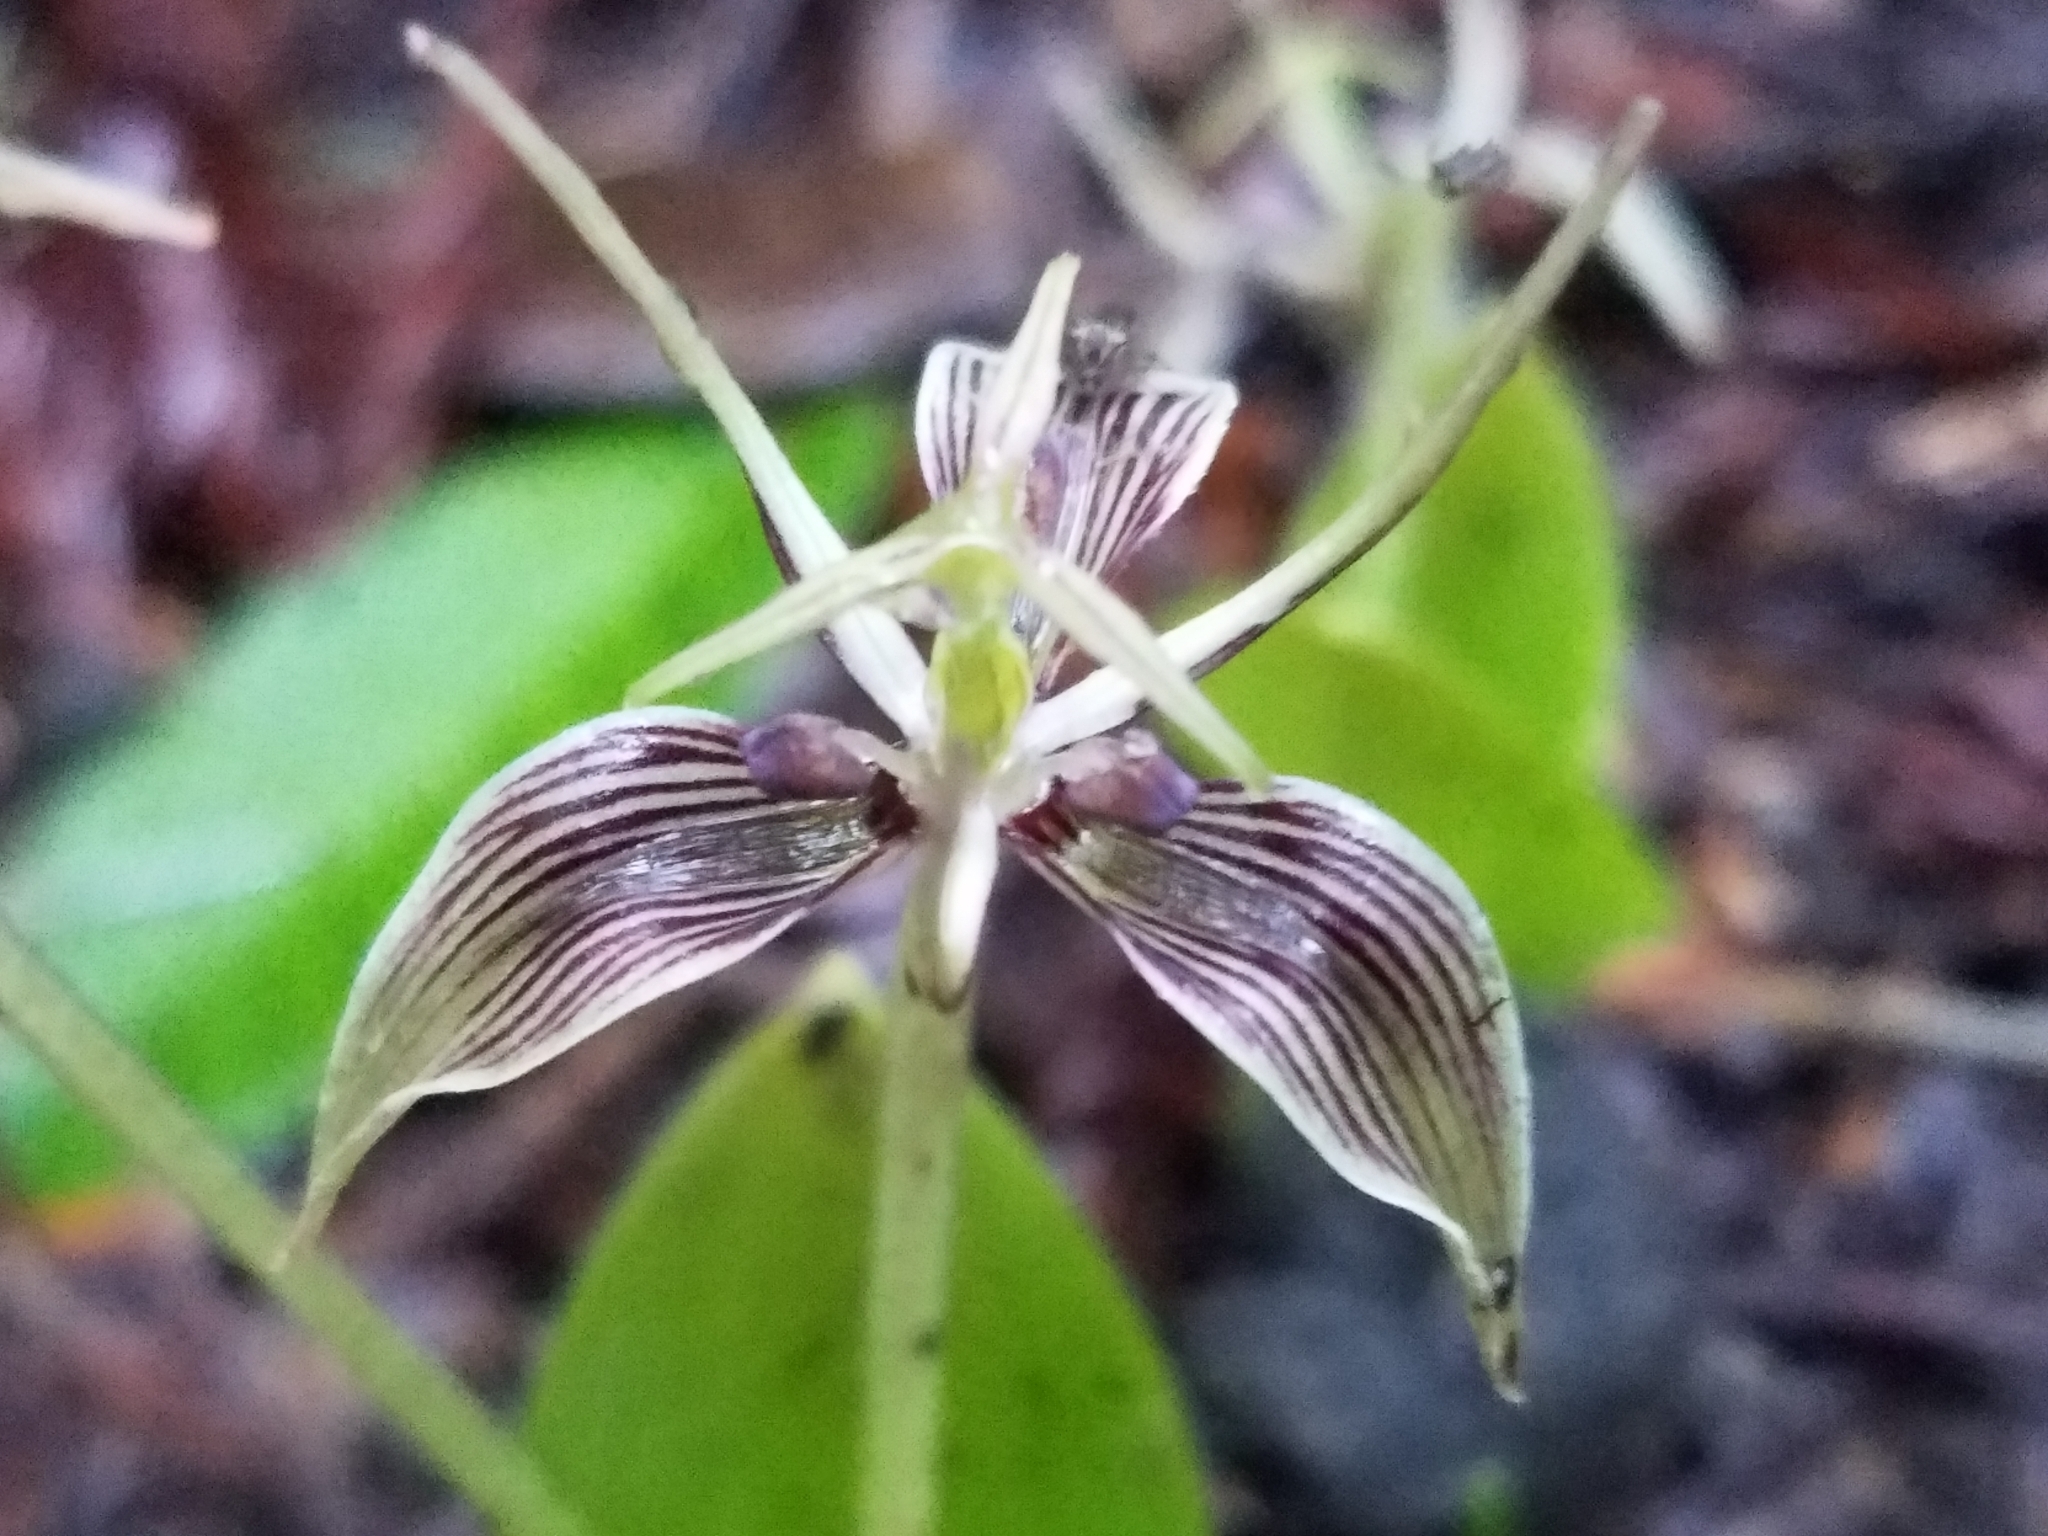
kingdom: Plantae
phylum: Tracheophyta
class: Liliopsida
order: Liliales
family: Liliaceae
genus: Scoliopus
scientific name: Scoliopus bigelovii
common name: Foetid adder's-tongue
